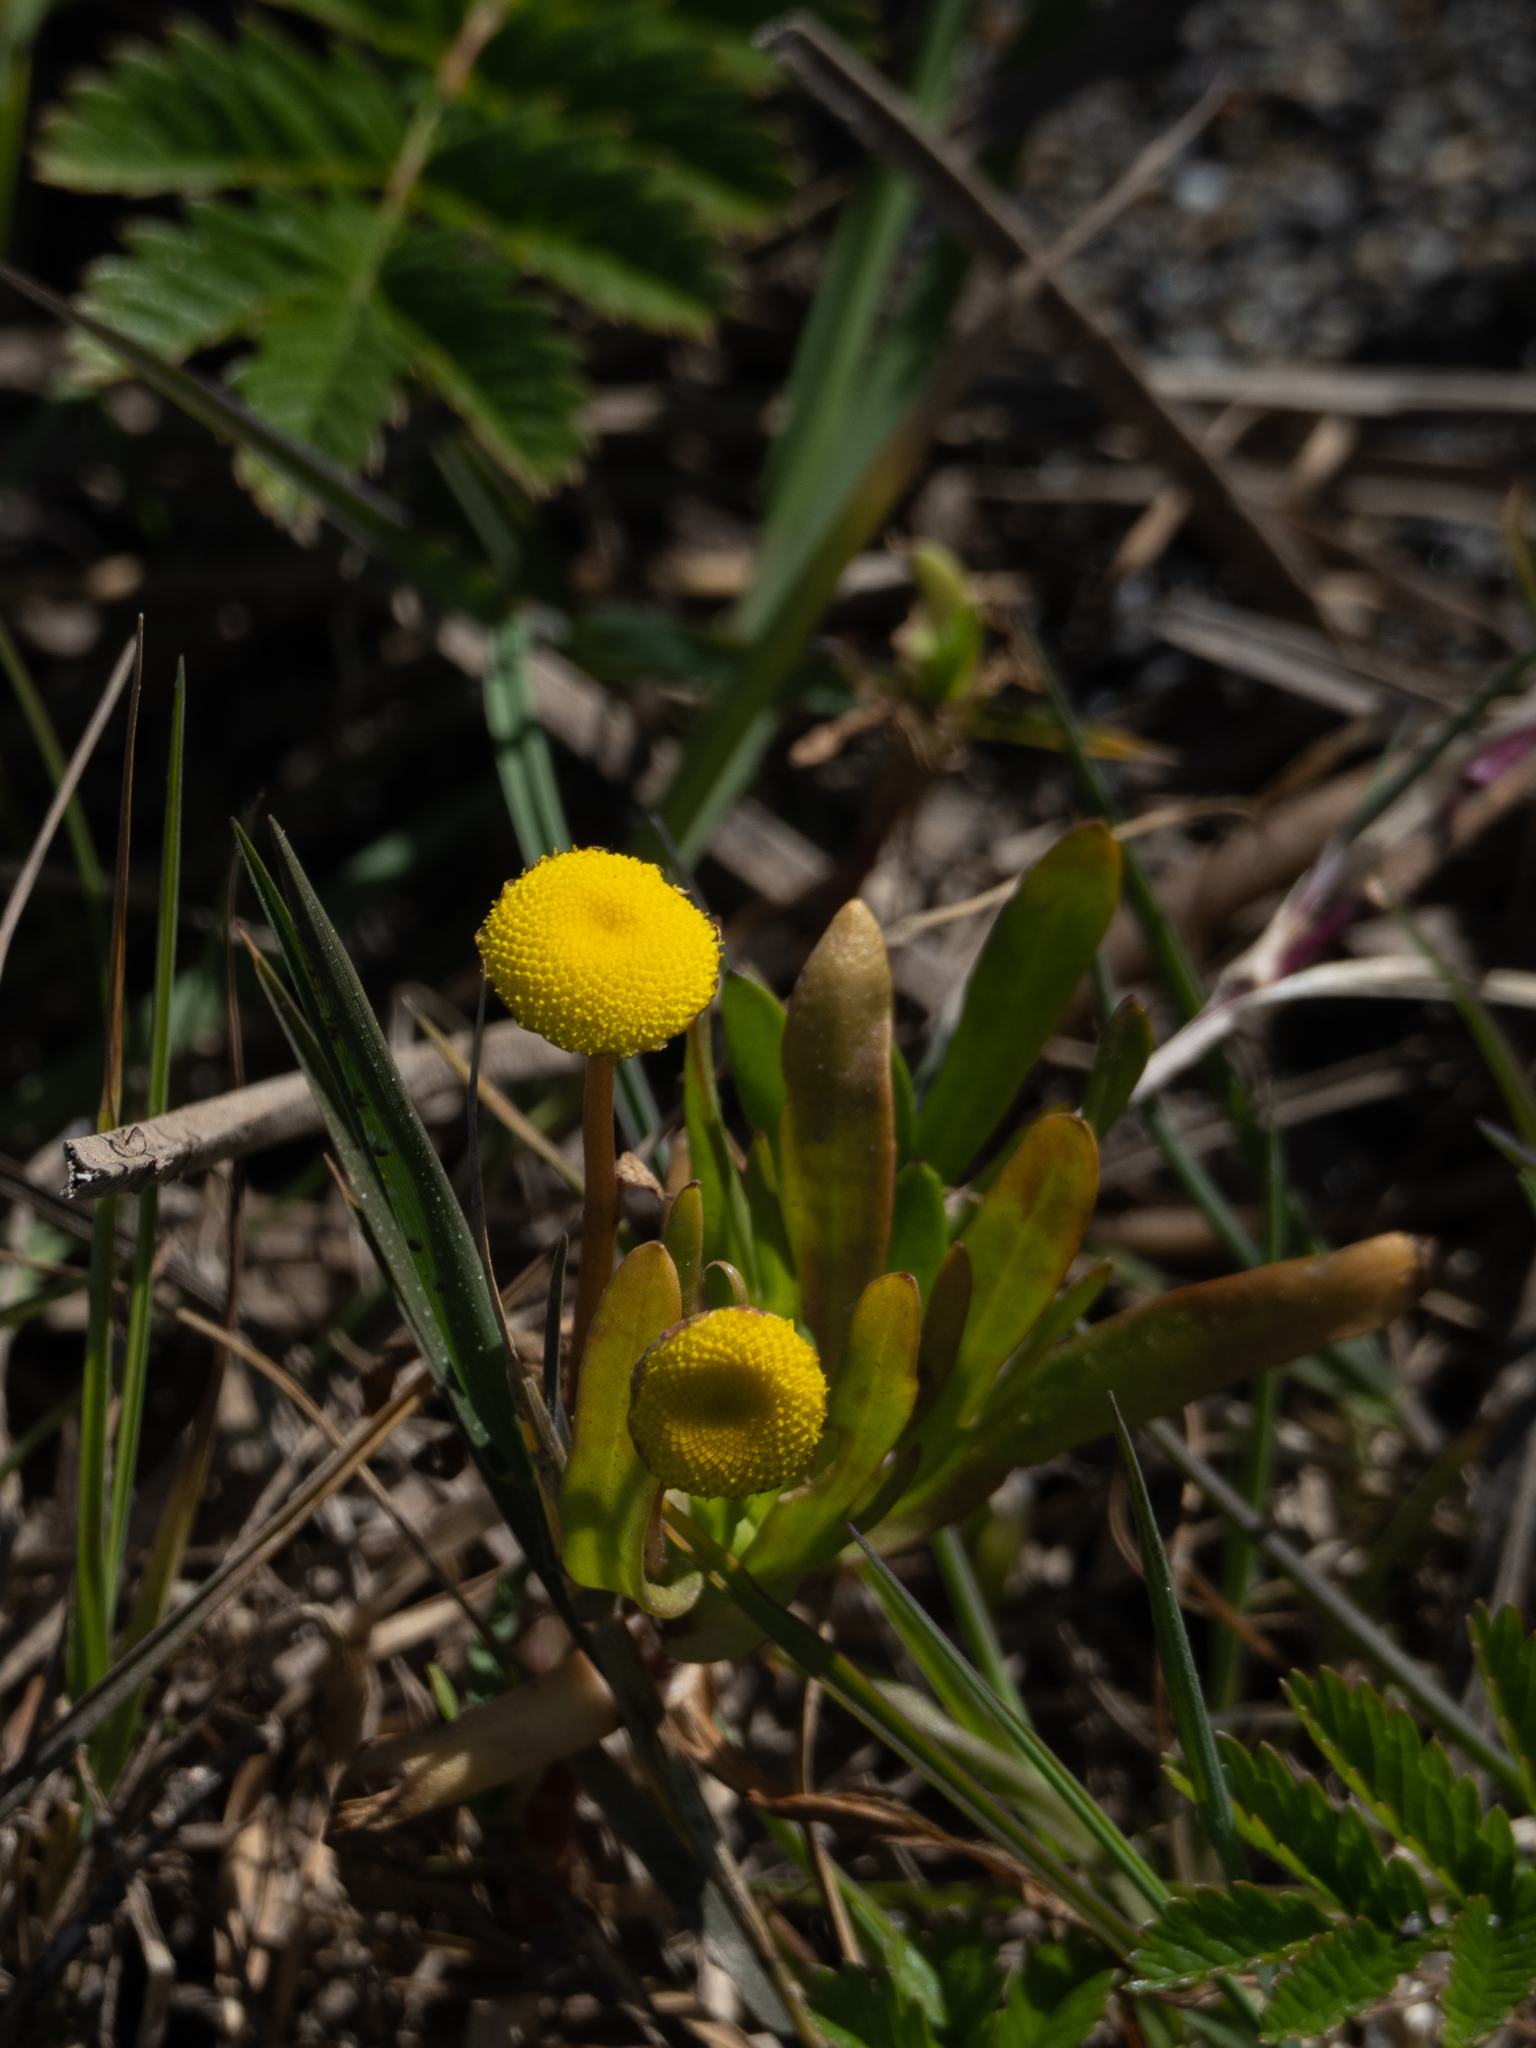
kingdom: Plantae
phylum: Tracheophyta
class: Magnoliopsida
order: Asterales
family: Asteraceae
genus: Cotula
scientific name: Cotula coronopifolia
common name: Buttonweed
